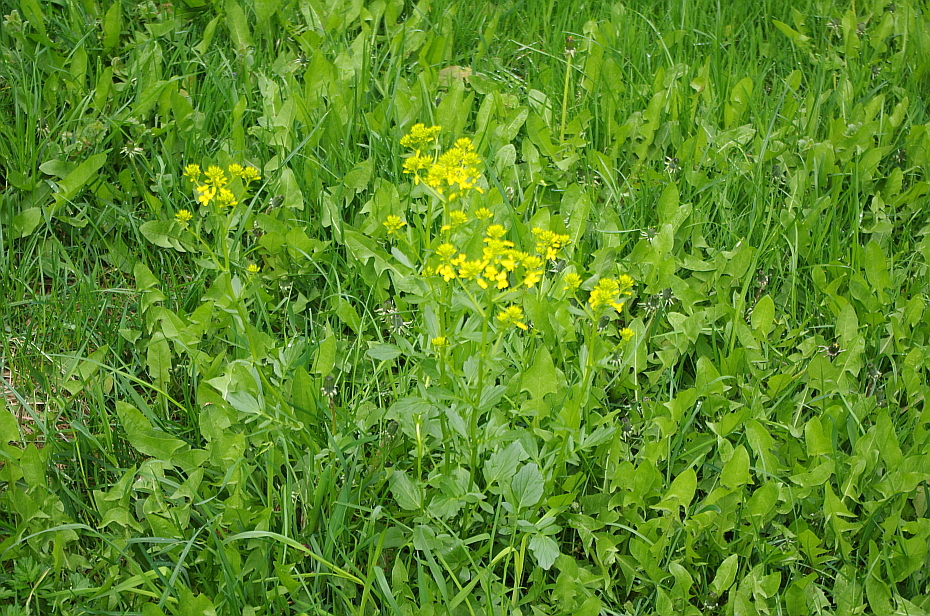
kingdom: Plantae
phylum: Tracheophyta
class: Magnoliopsida
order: Brassicales
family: Brassicaceae
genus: Barbarea
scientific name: Barbarea vulgaris
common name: Cressy-greens
